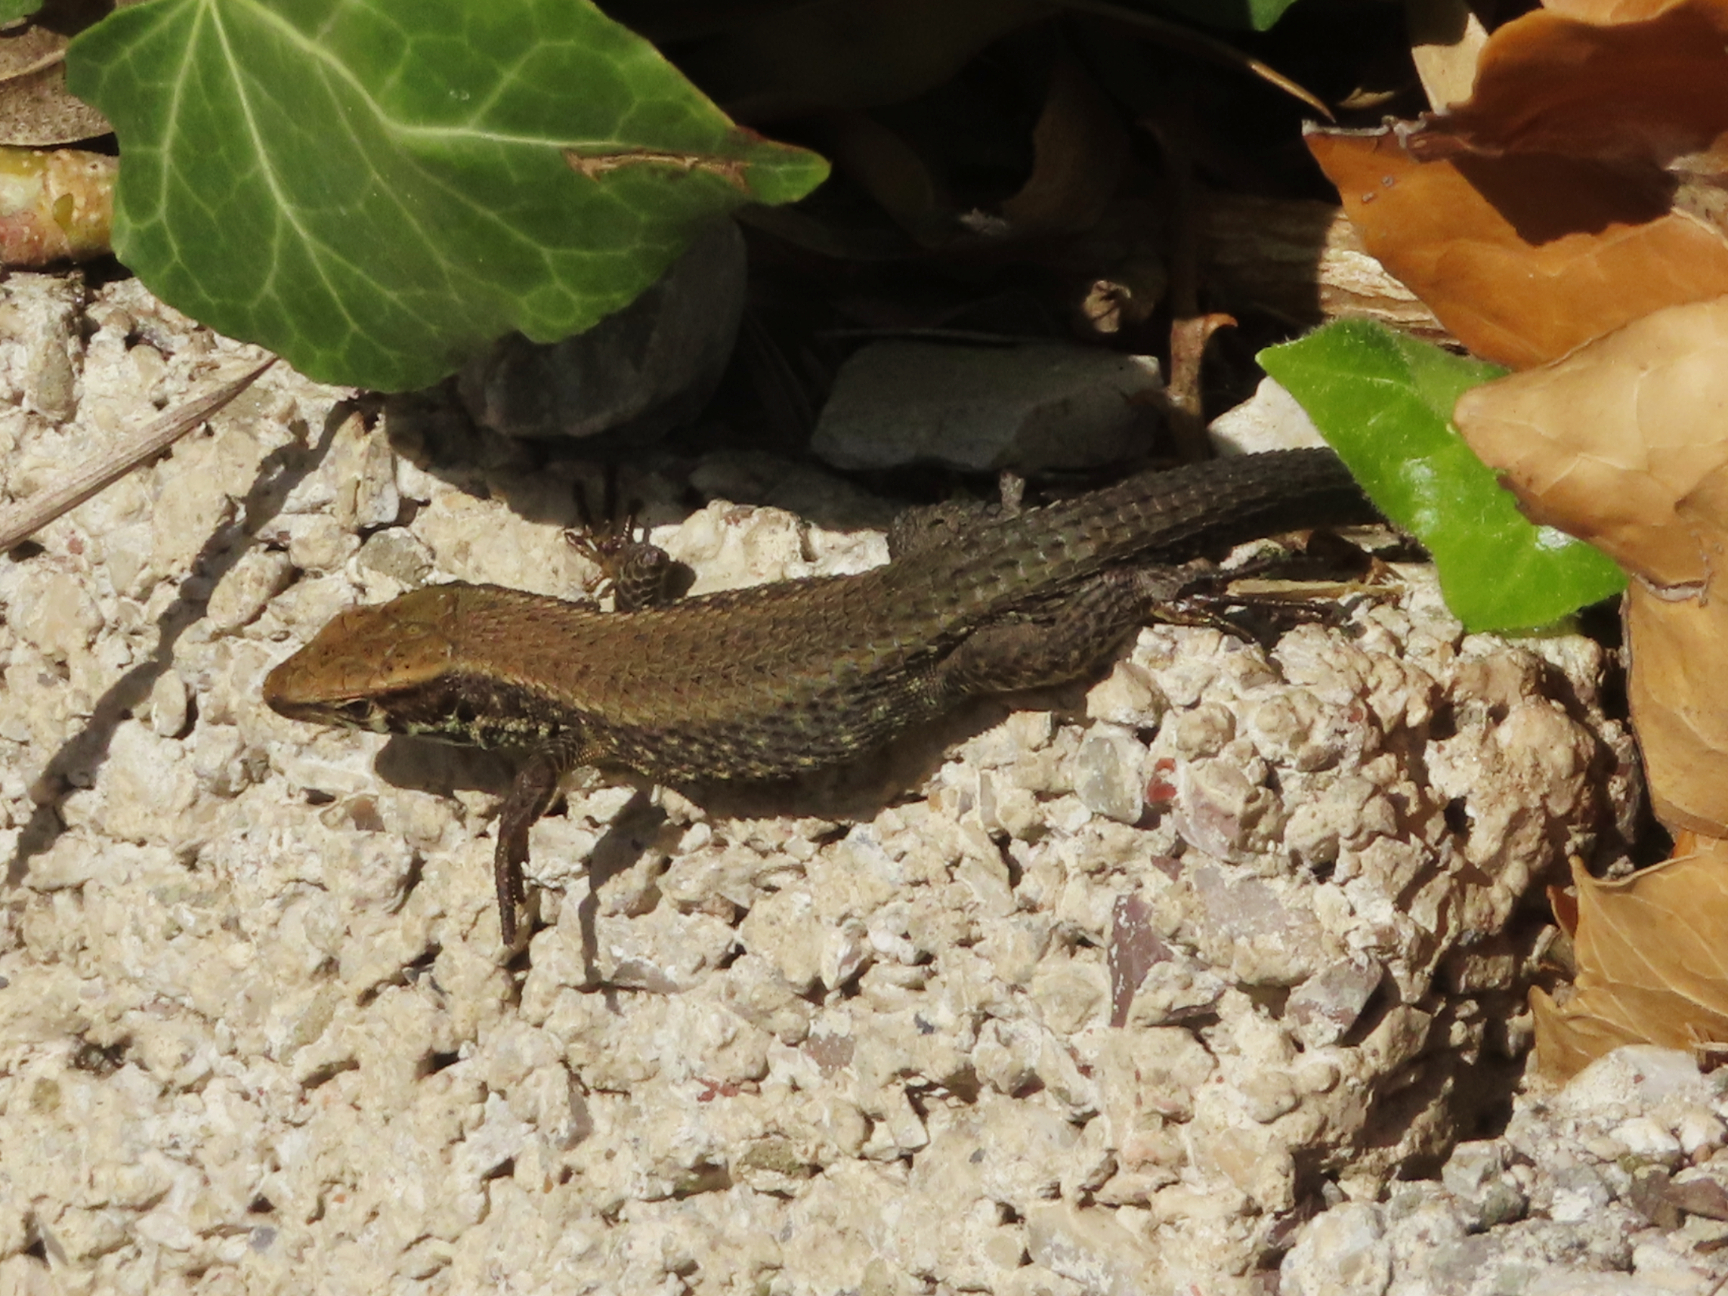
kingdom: Animalia
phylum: Chordata
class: Squamata
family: Lacertidae
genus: Algyroides
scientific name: Algyroides moreoticus
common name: Greek algyroides
